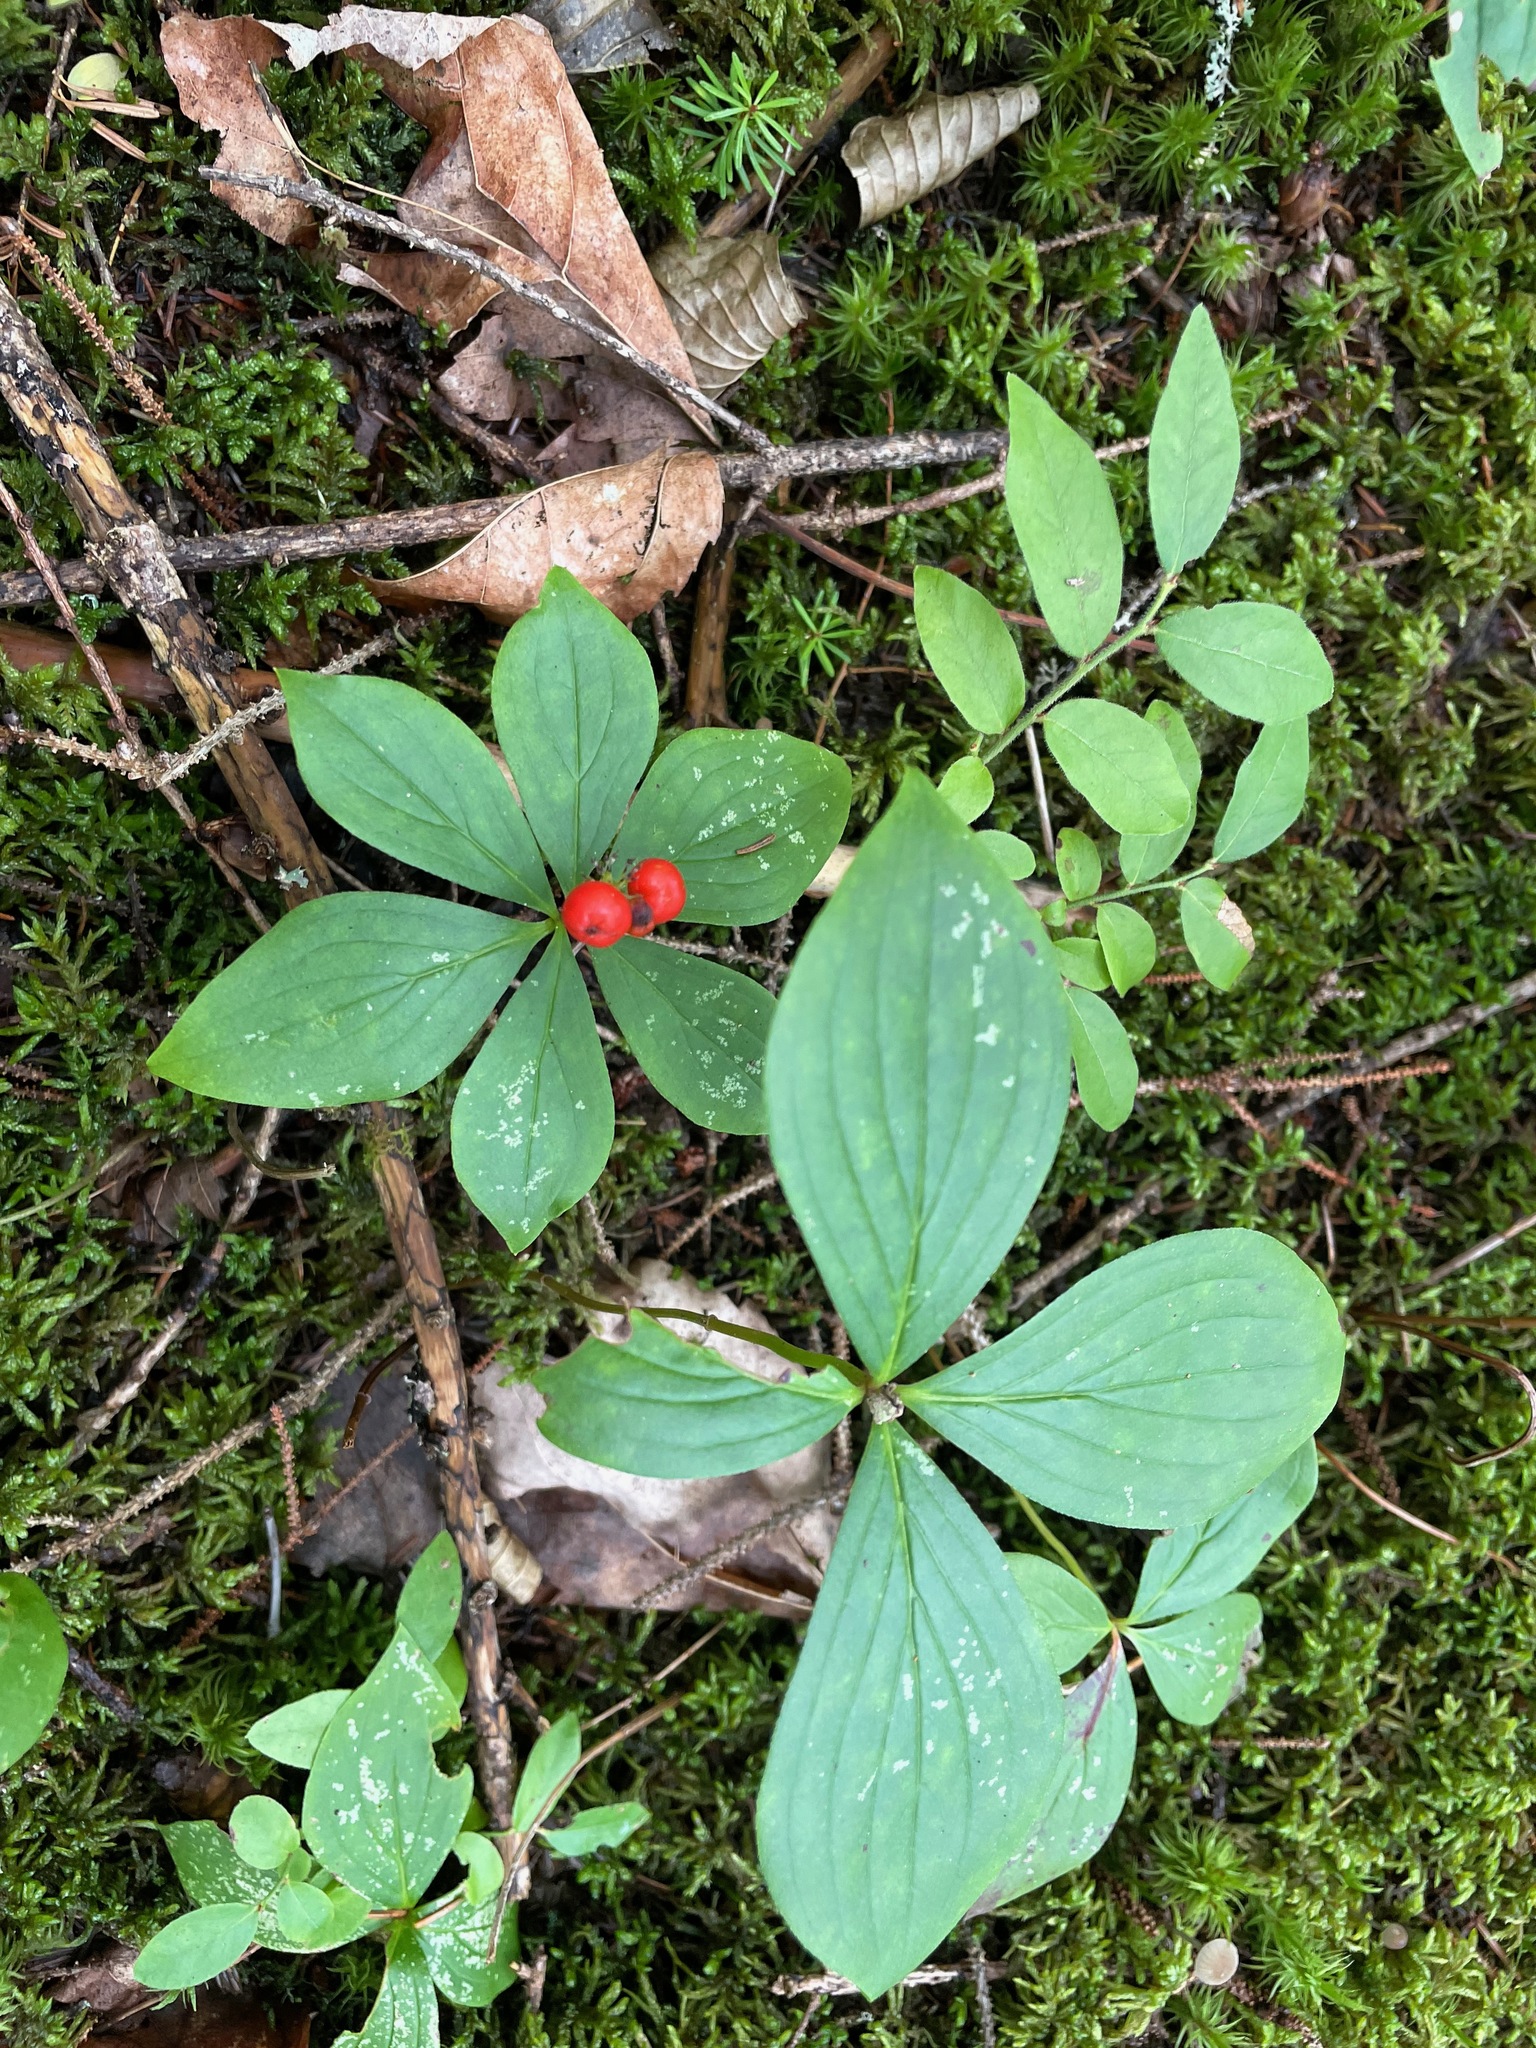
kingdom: Plantae
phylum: Tracheophyta
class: Magnoliopsida
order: Cornales
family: Cornaceae
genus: Cornus
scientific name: Cornus canadensis
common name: Creeping dogwood
